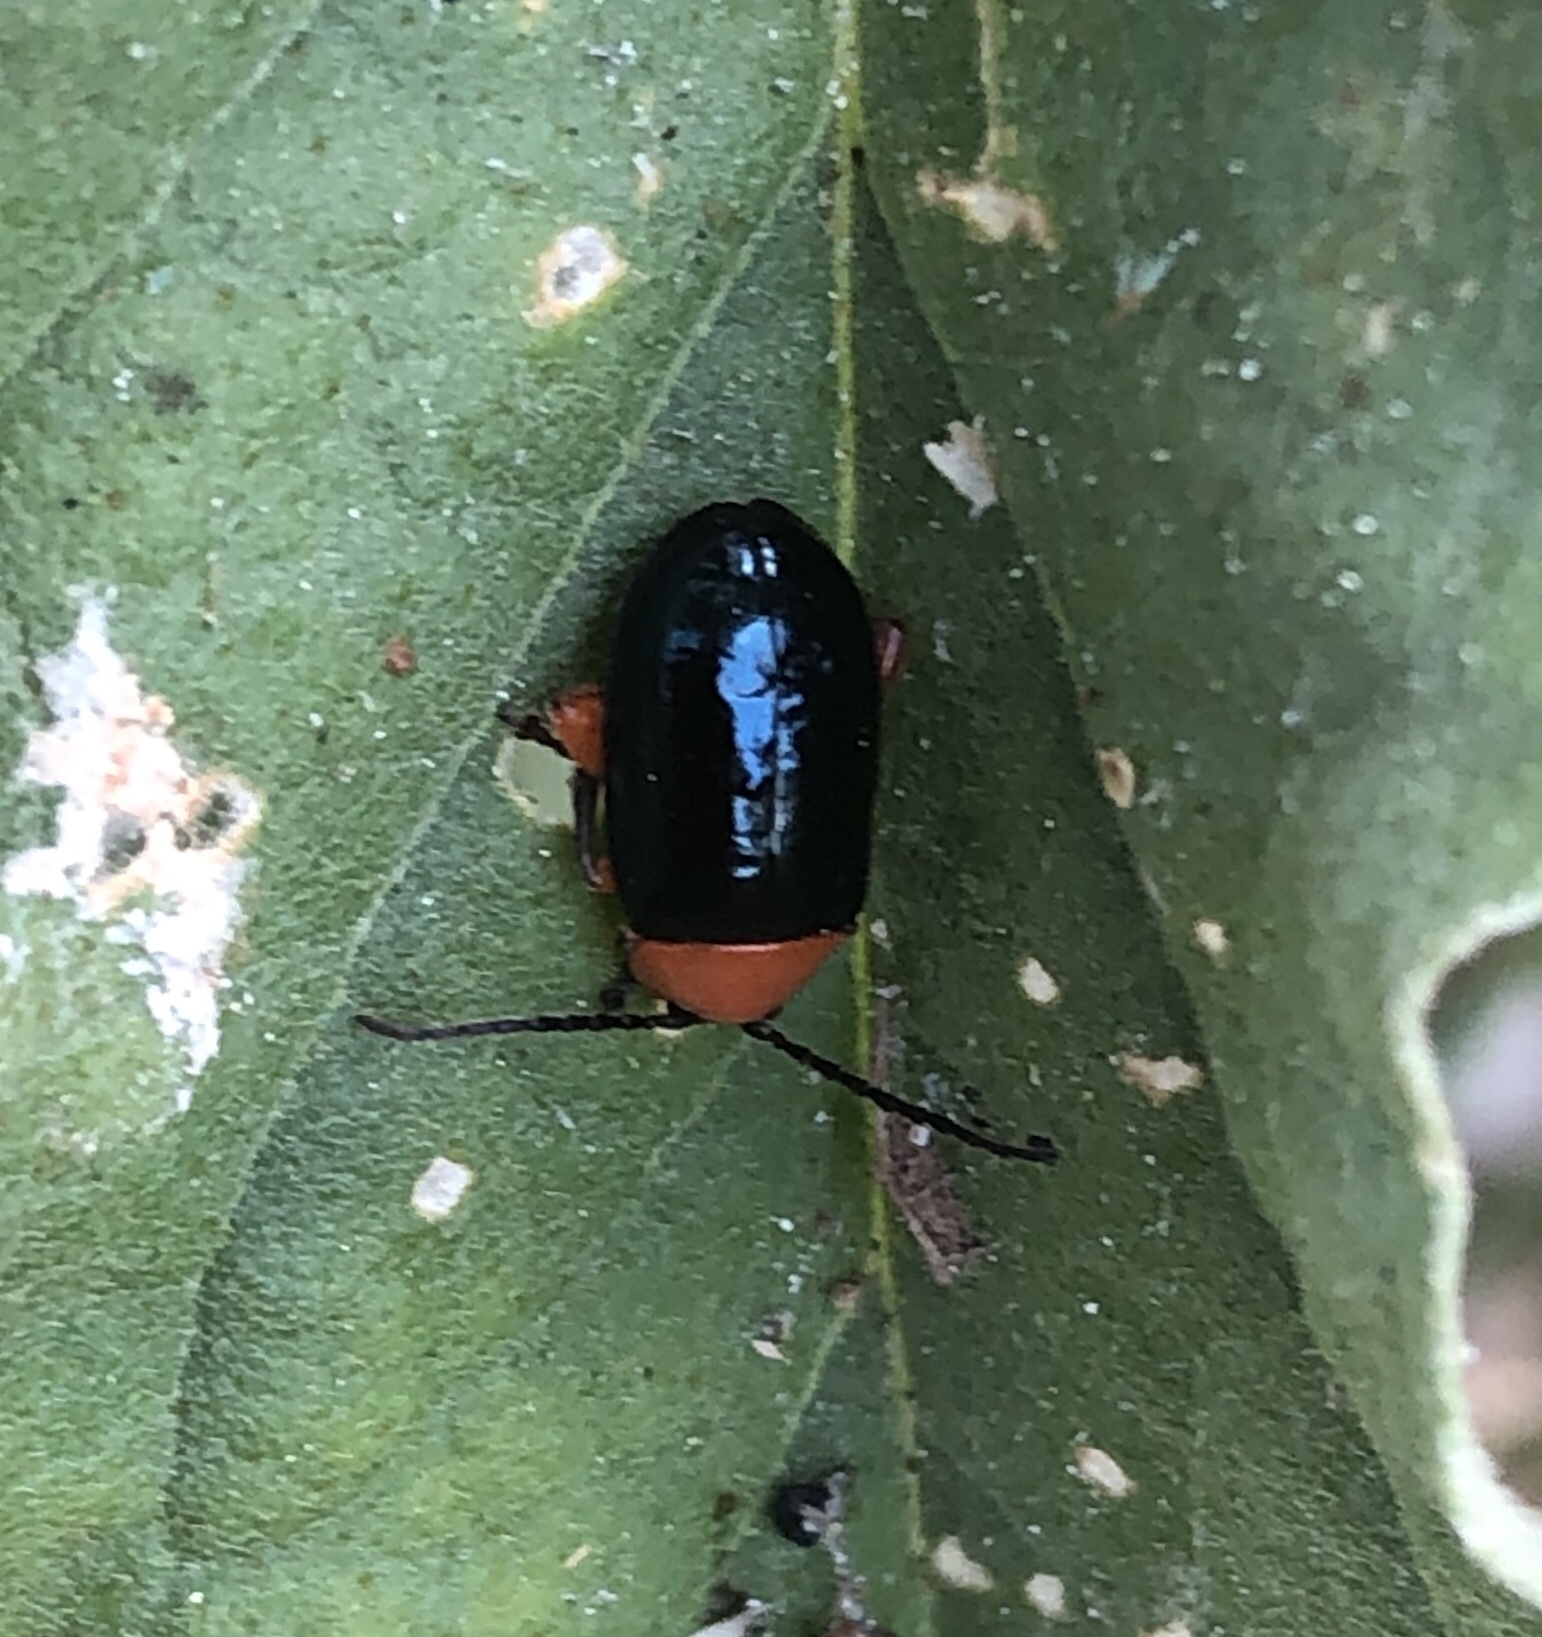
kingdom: Animalia
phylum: Arthropoda
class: Insecta
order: Coleoptera
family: Chrysomelidae
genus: Asphaera
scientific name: Asphaera lustrans
